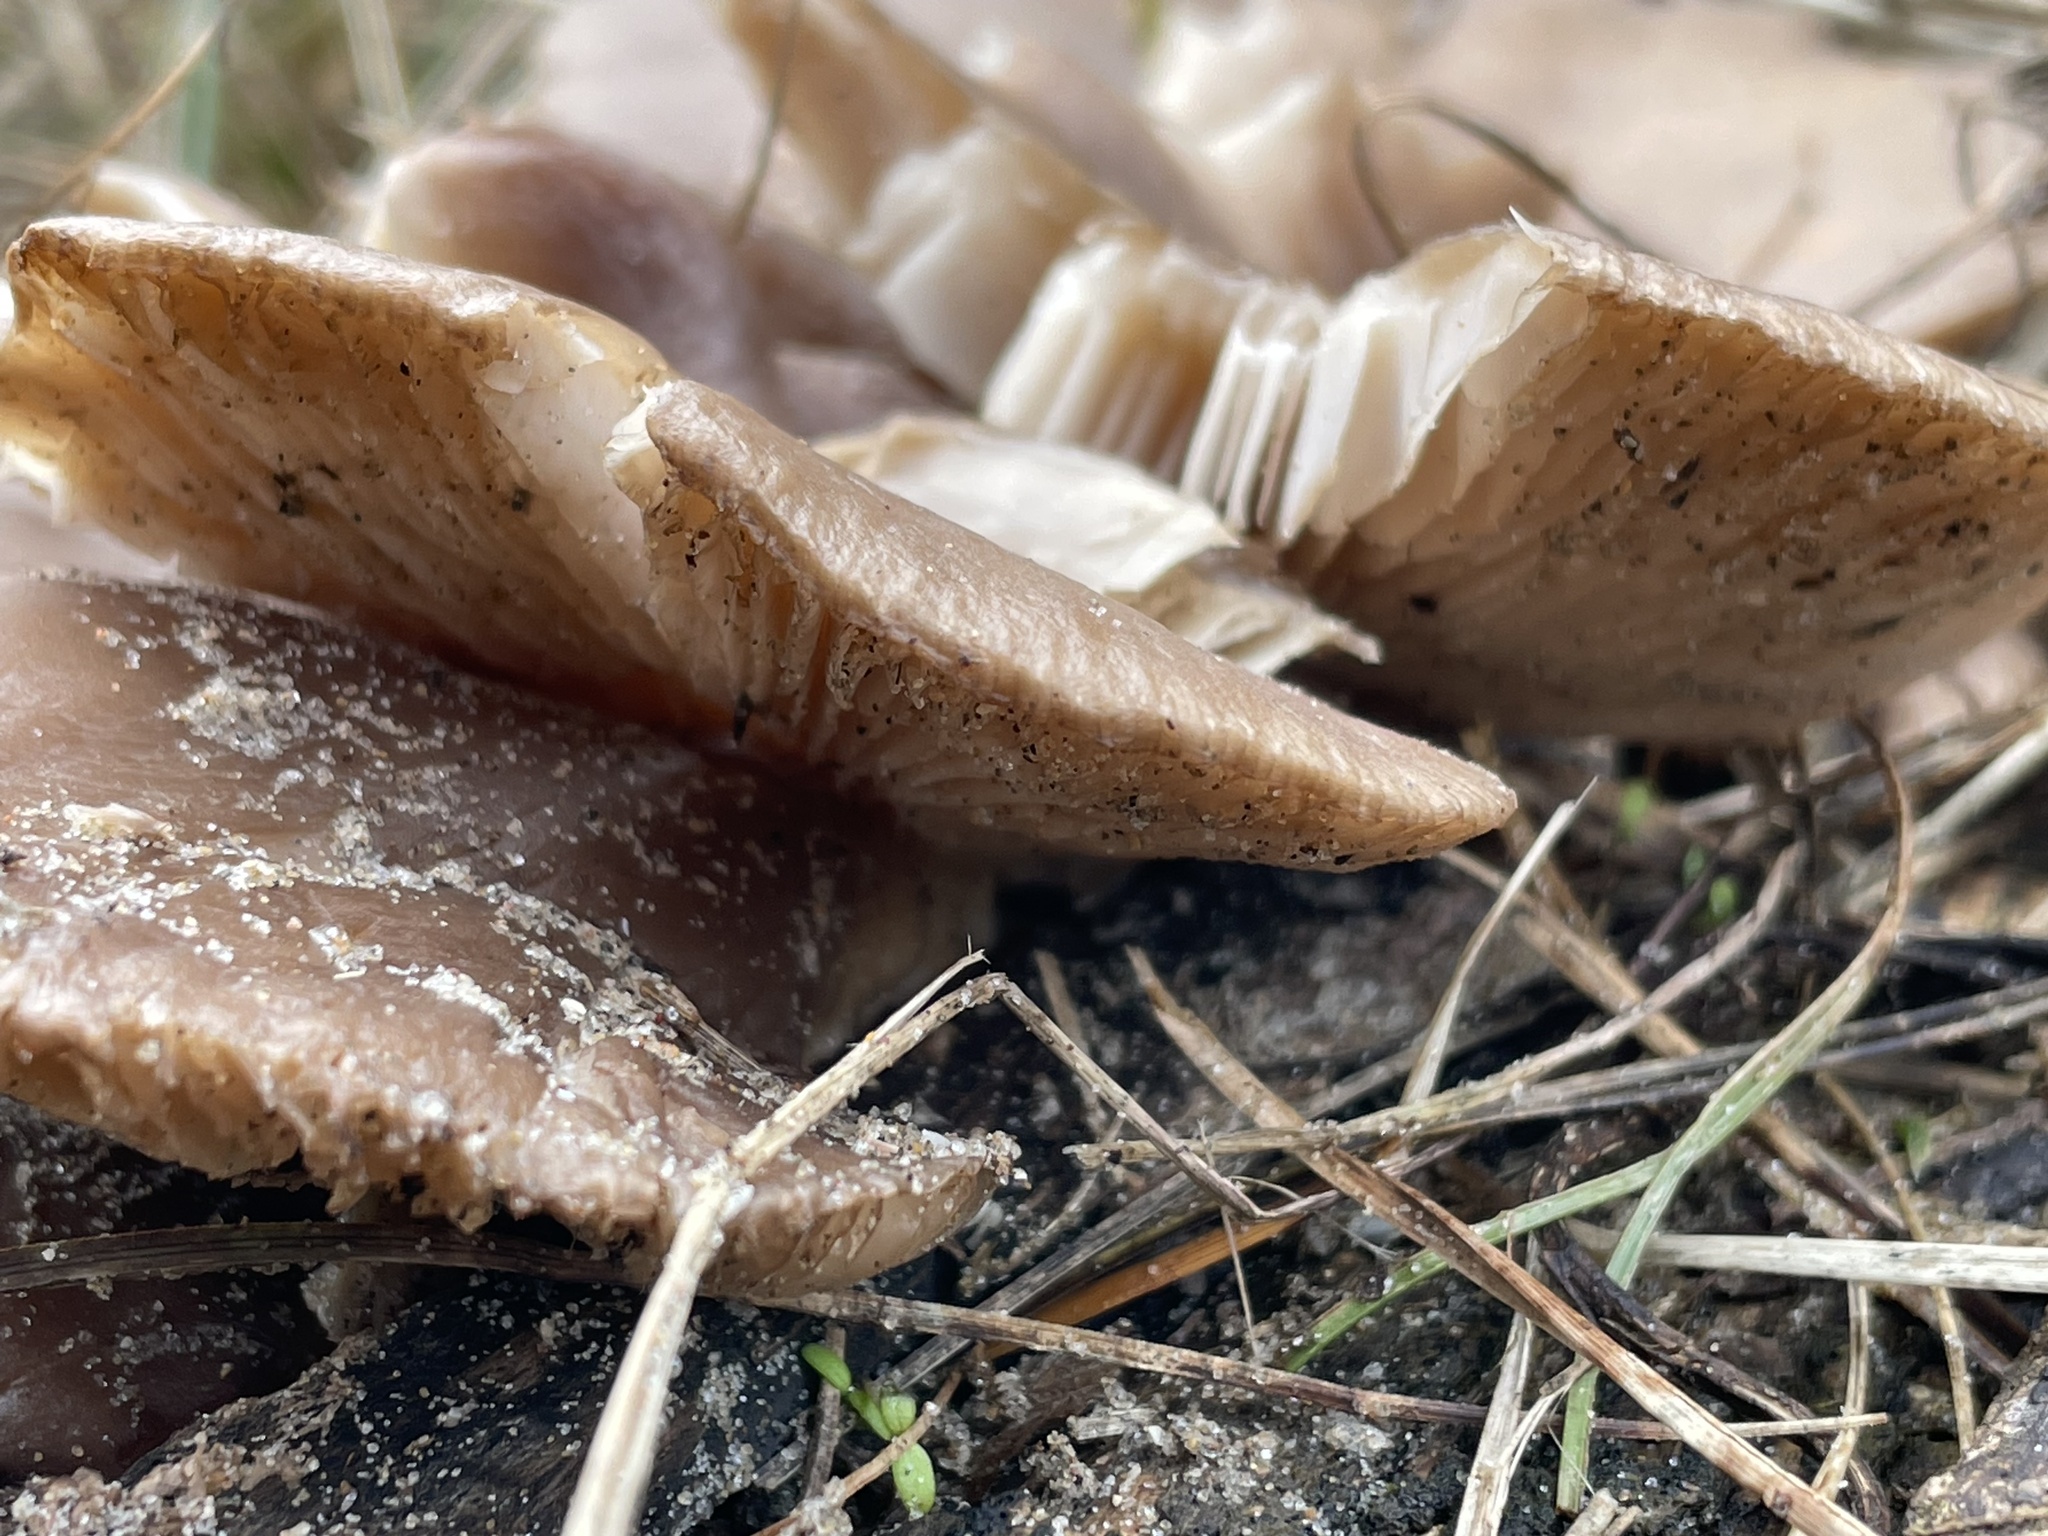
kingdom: Fungi
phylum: Basidiomycota
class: Agaricomycetes
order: Agaricales
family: Pleurotaceae
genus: Pleurotus
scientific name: Pleurotus ostreatus
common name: Oyster mushroom
